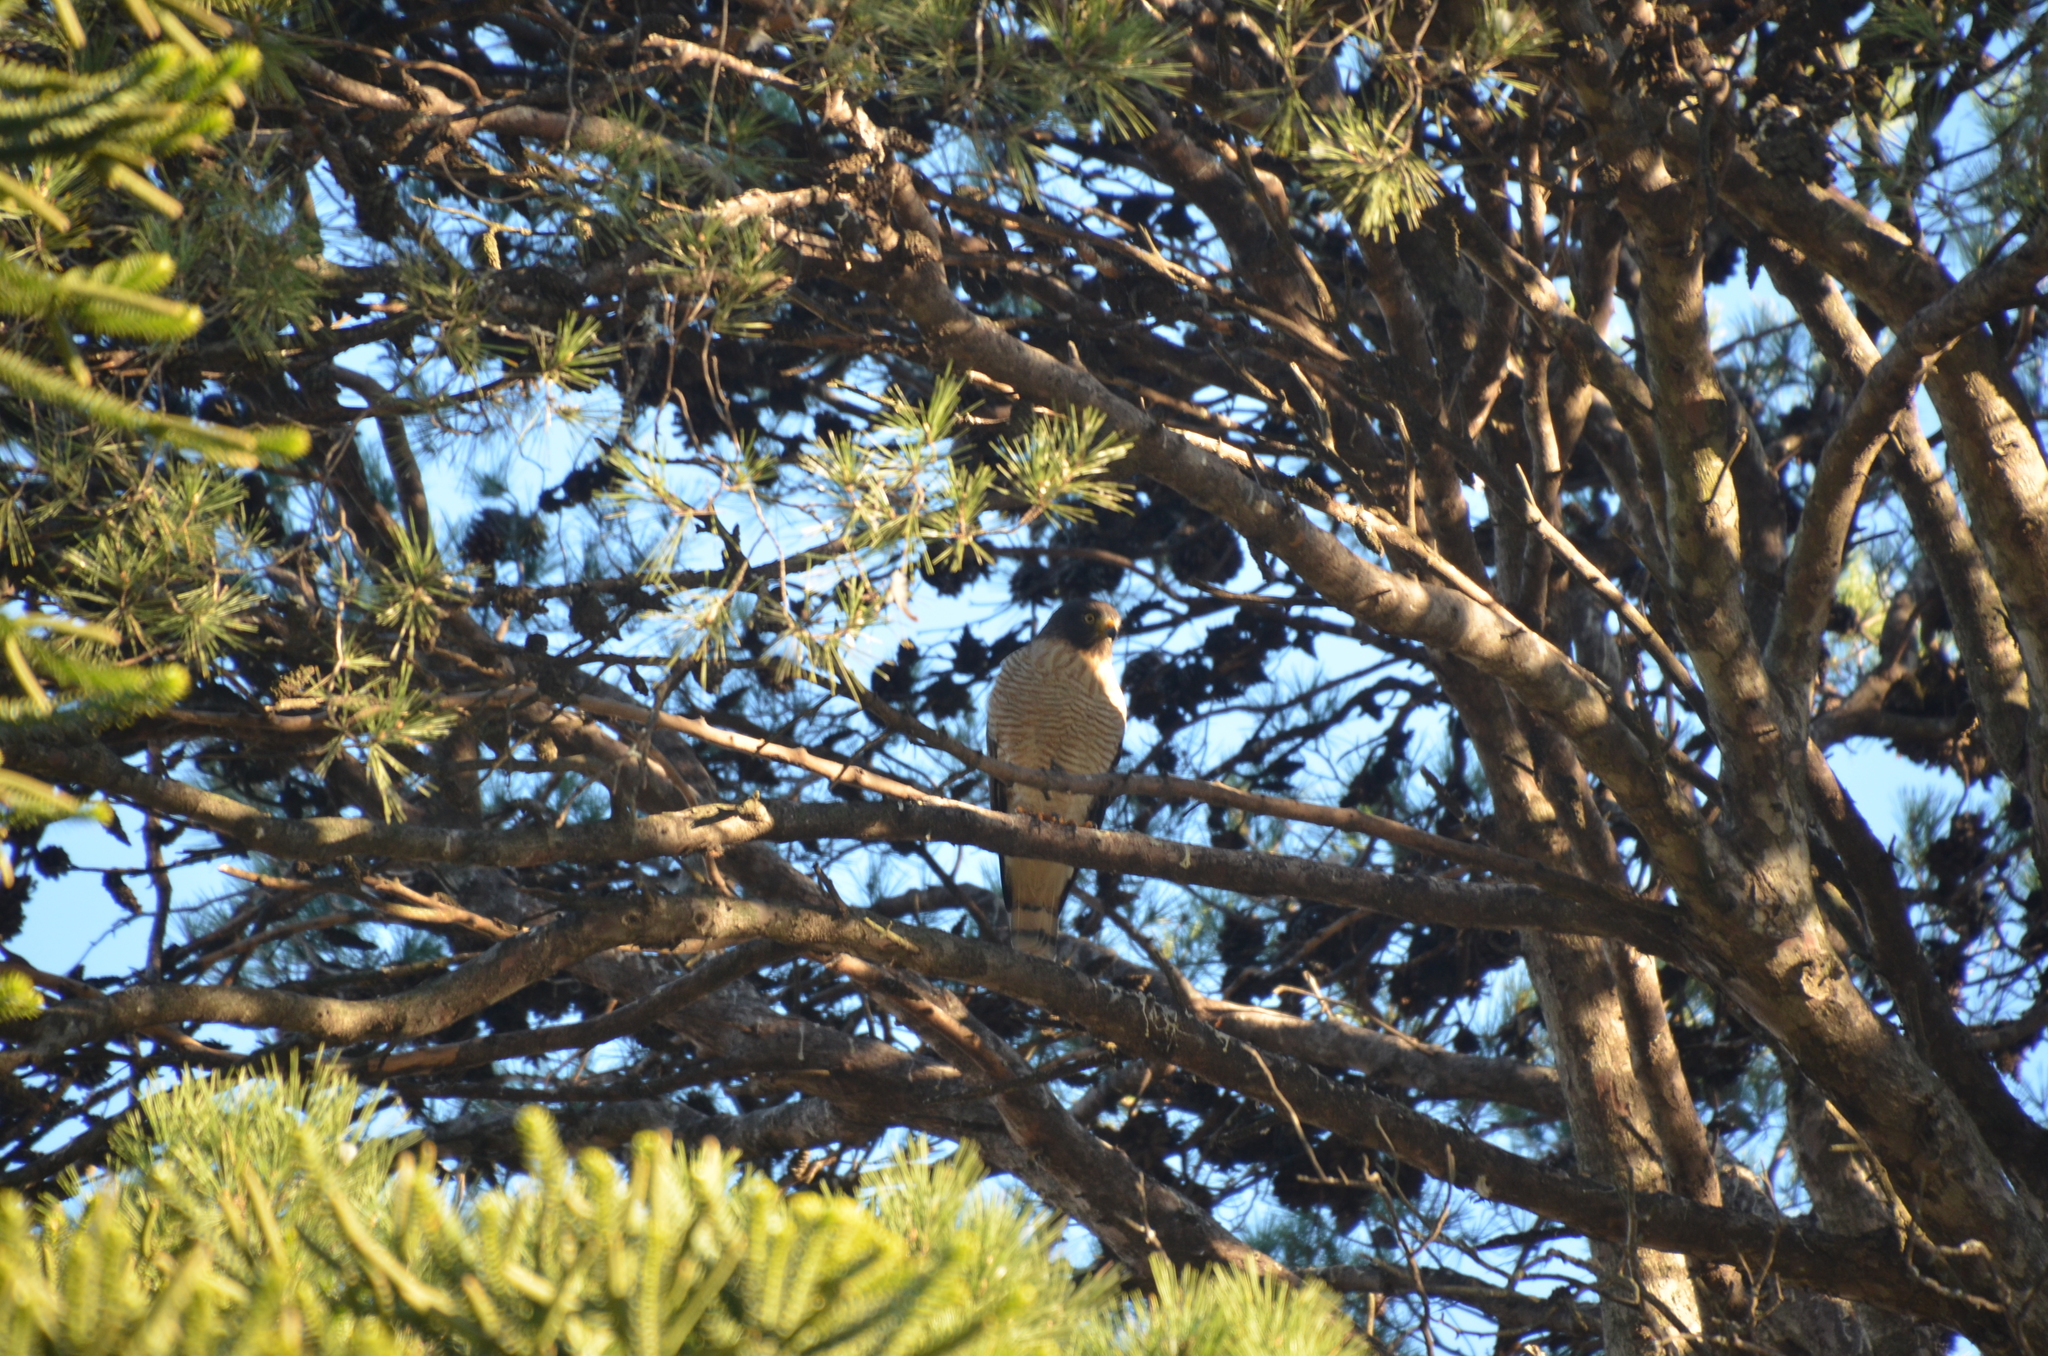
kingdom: Animalia
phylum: Chordata
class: Aves
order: Accipitriformes
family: Accipitridae
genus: Rupornis
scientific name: Rupornis magnirostris
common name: Roadside hawk
